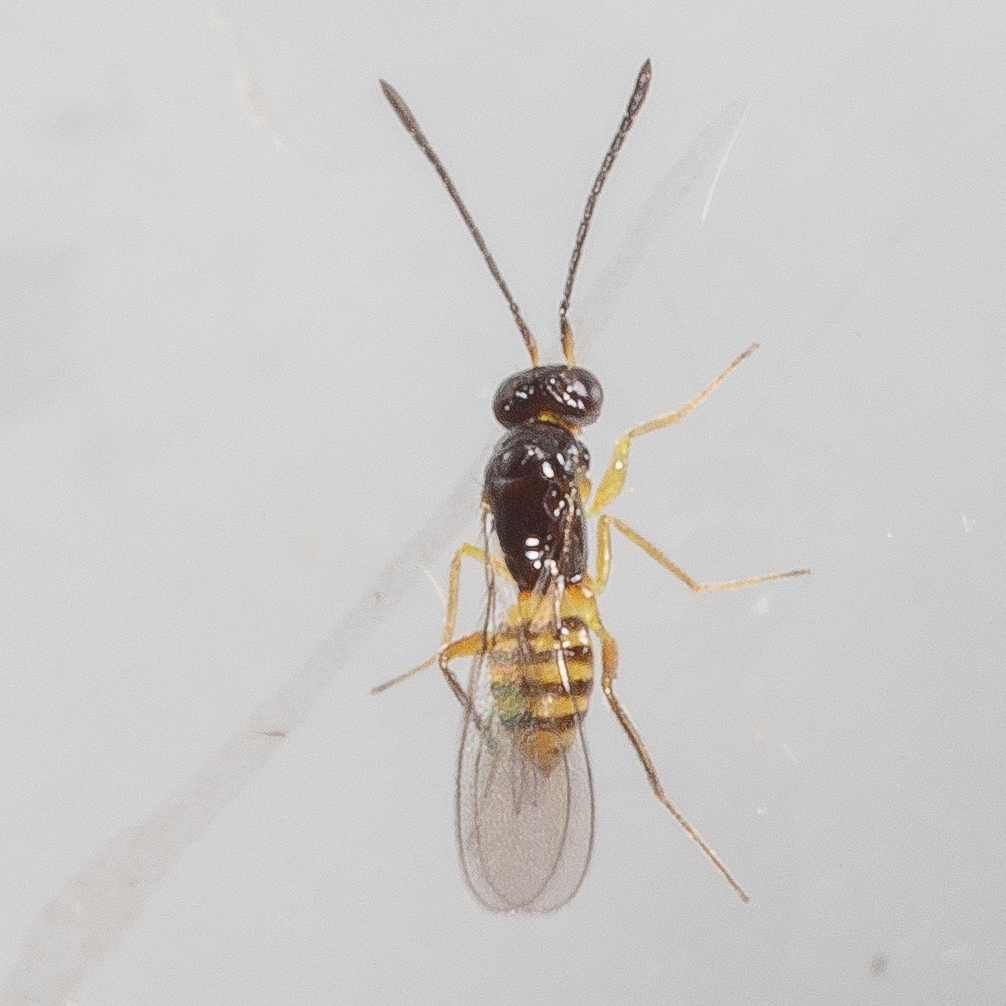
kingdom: Animalia
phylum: Arthropoda
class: Insecta
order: Hymenoptera
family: Mymaridae
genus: Cosmocomoidea
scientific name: Cosmocomoidea ashmeadi
